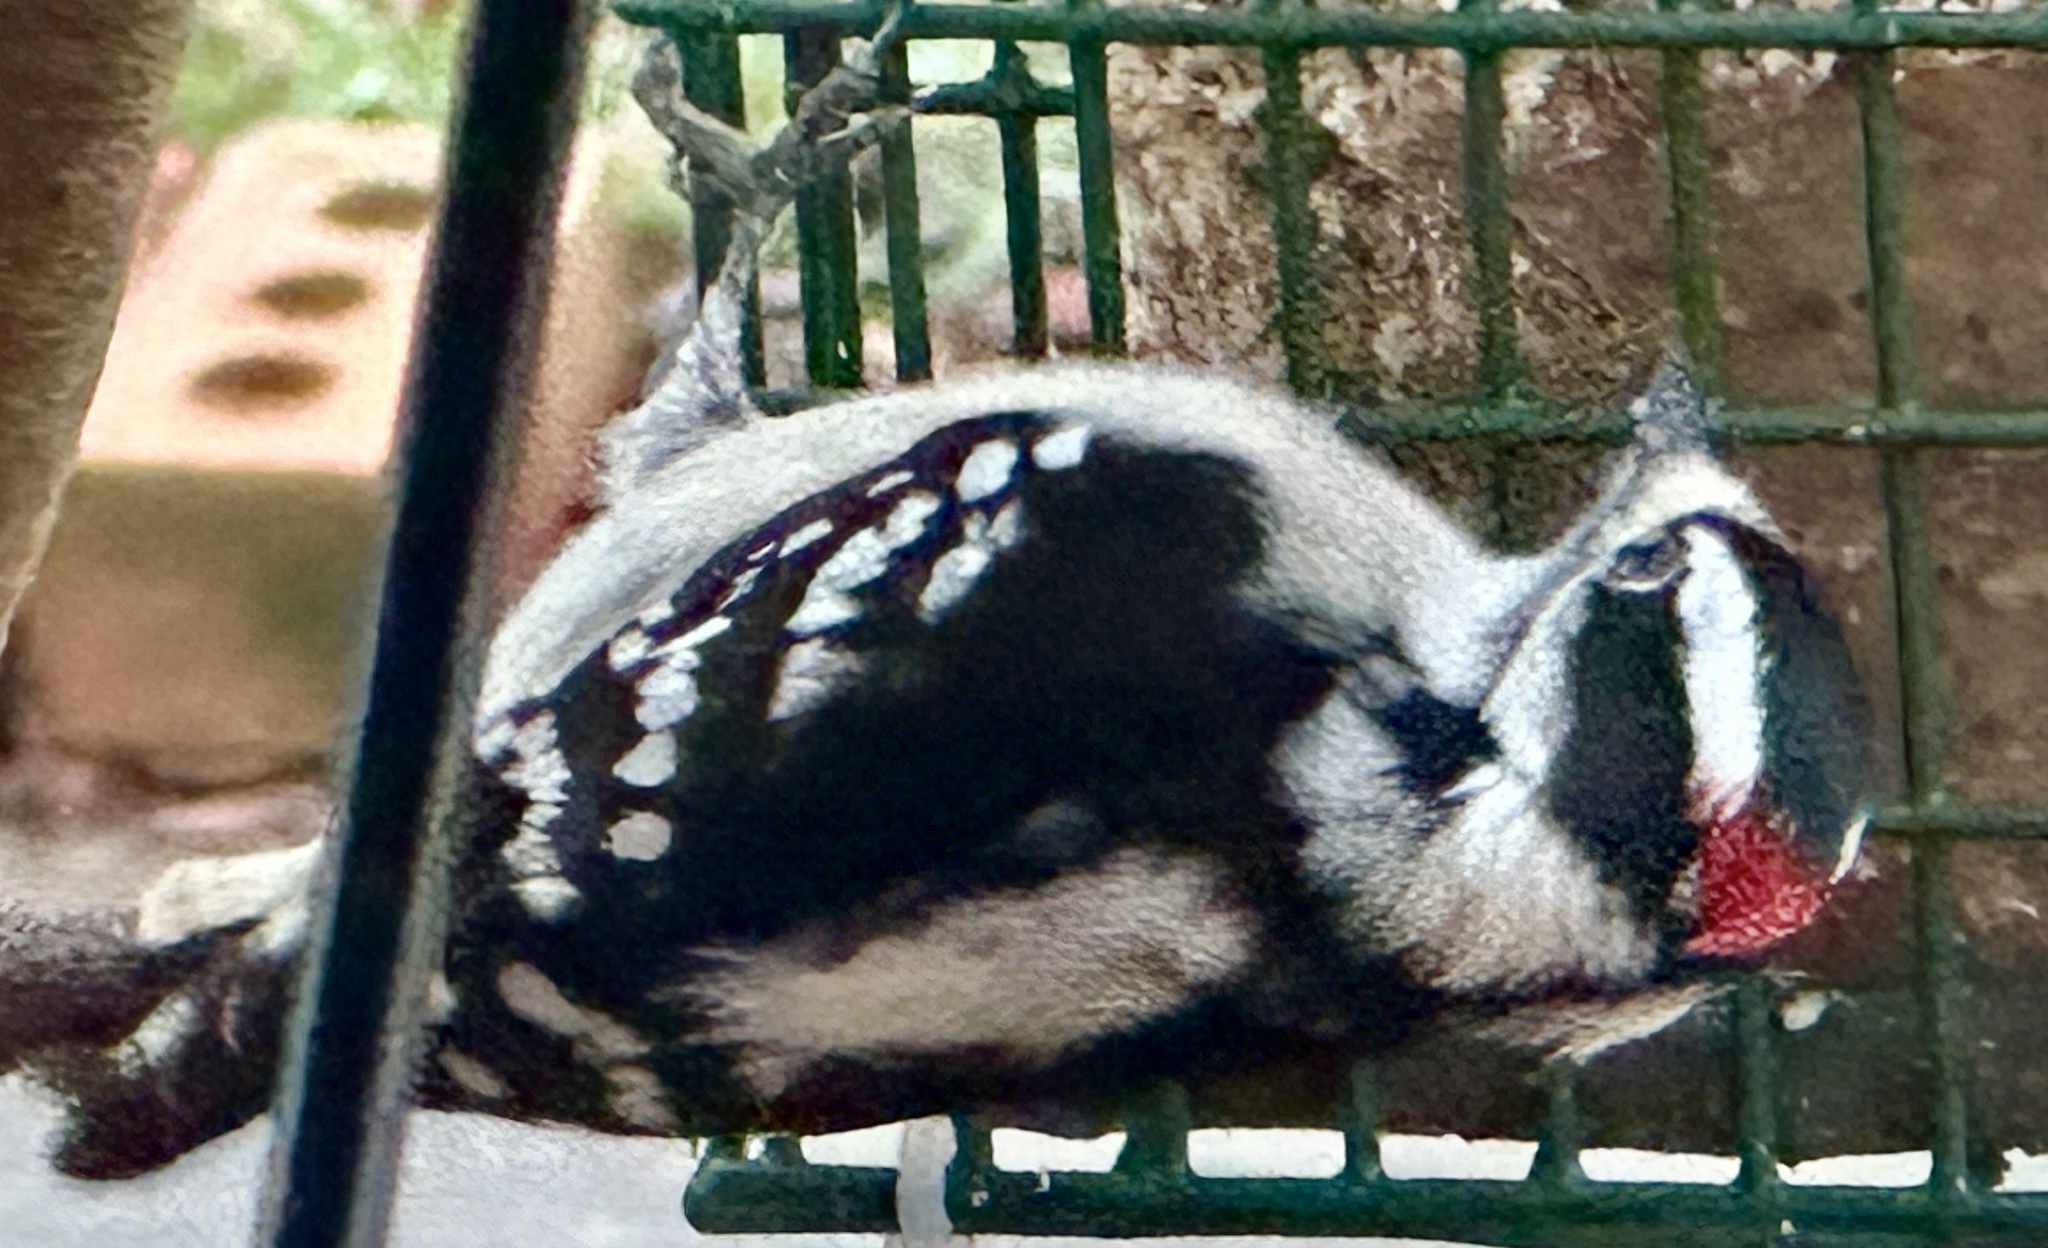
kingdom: Animalia
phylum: Chordata
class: Aves
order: Piciformes
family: Picidae
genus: Dryobates
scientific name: Dryobates pubescens
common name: Downy woodpecker
